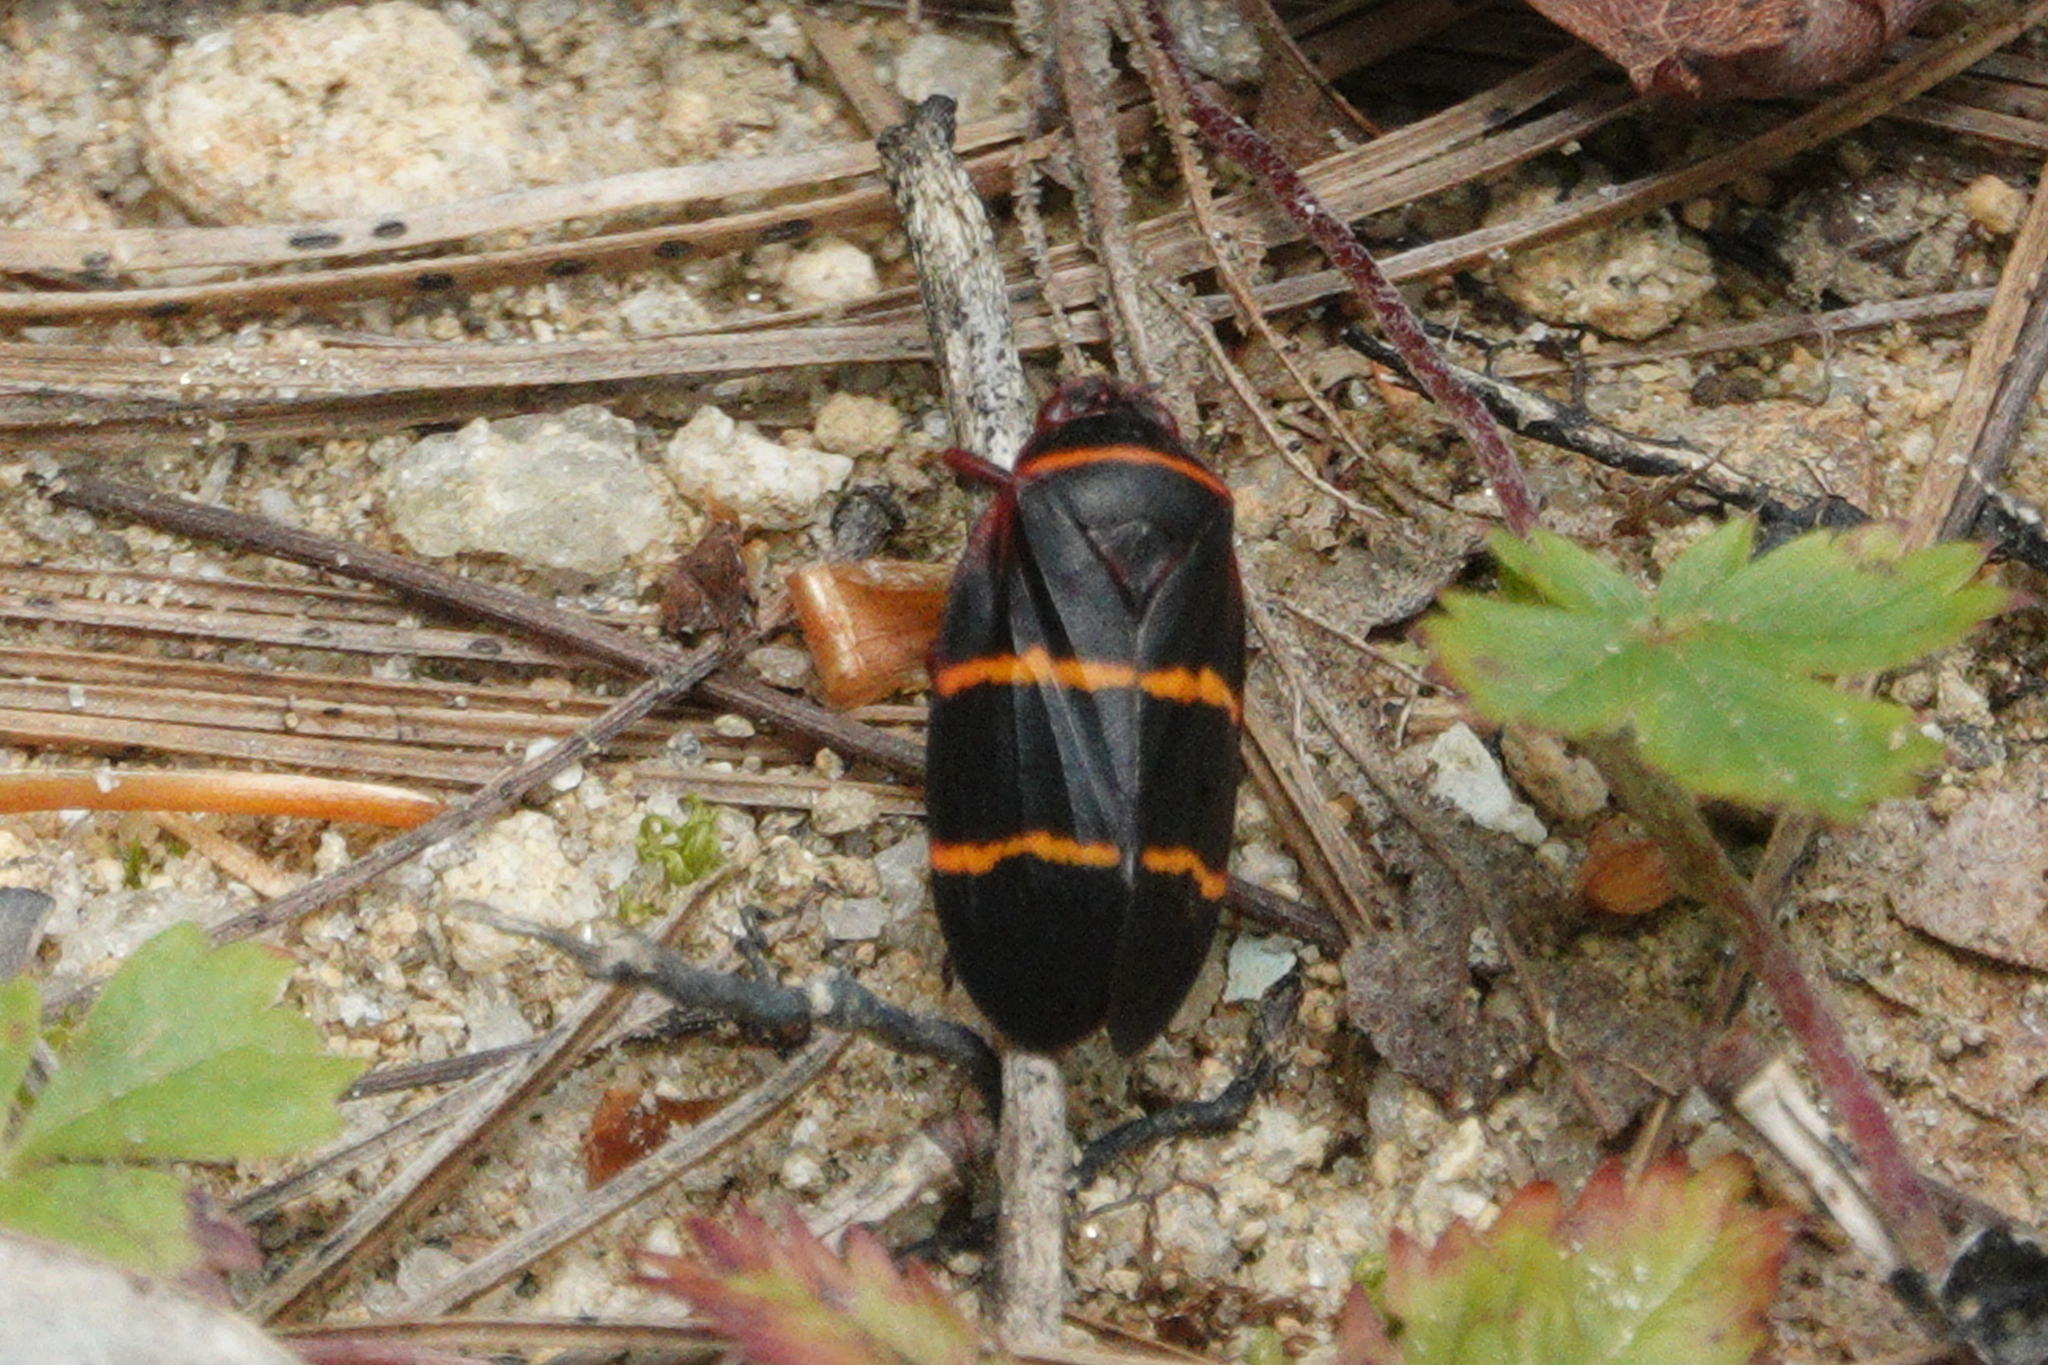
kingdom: Animalia
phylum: Arthropoda
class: Insecta
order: Hemiptera
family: Cercopidae
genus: Prosapia
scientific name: Prosapia bicincta
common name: Twolined spittlebug
